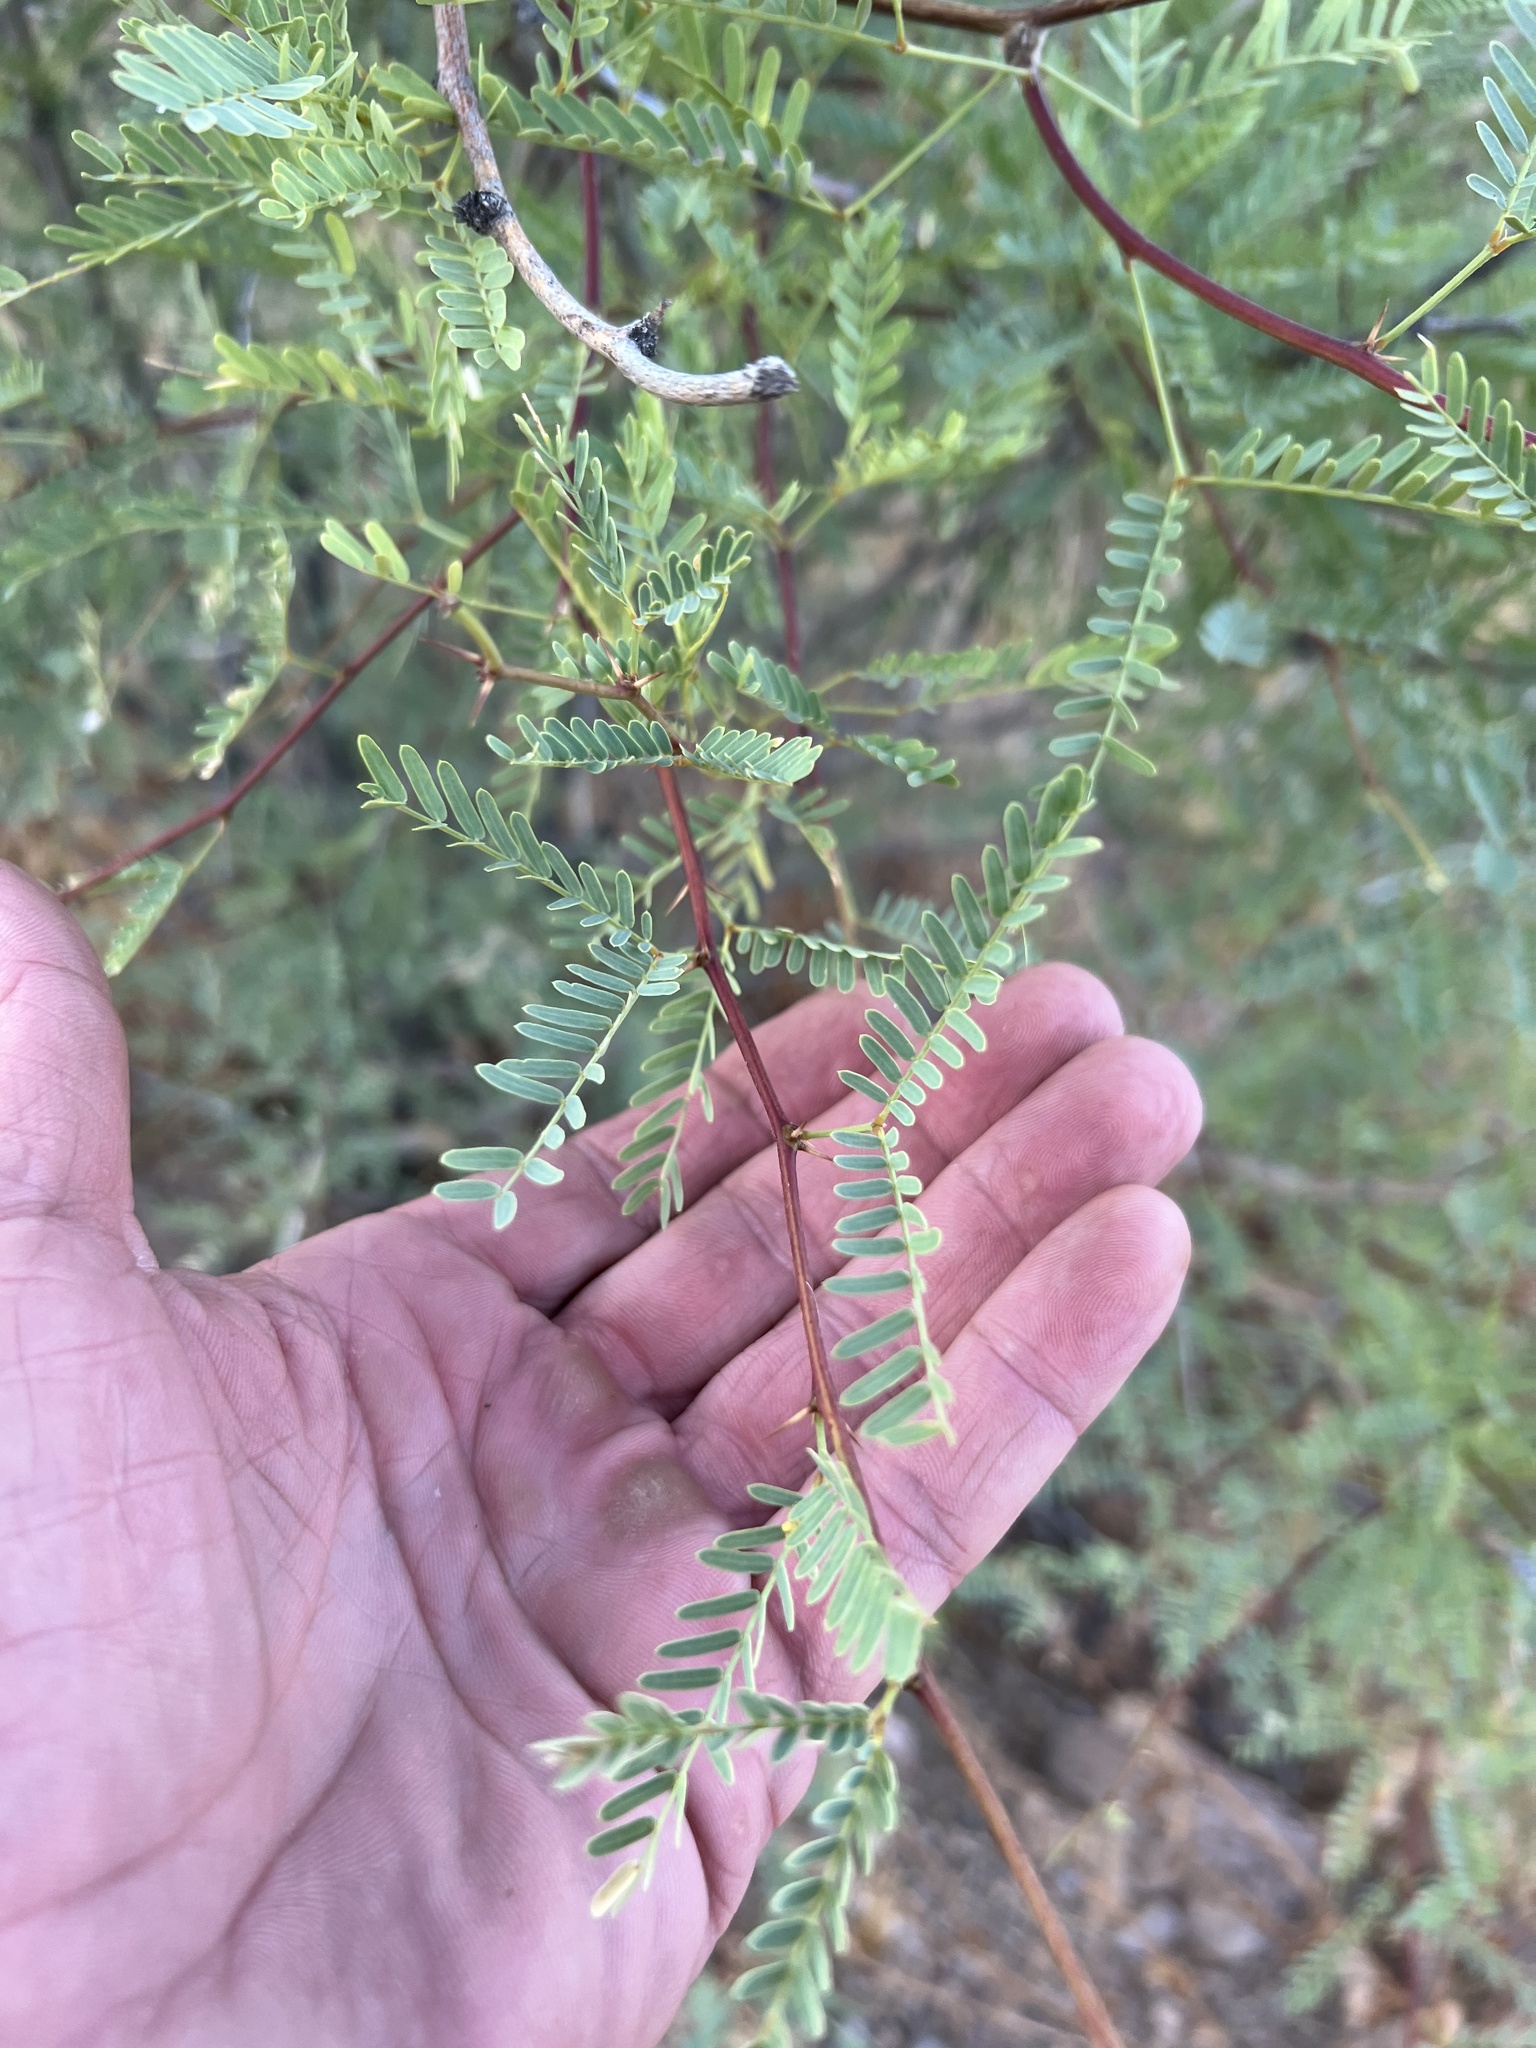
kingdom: Plantae
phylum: Tracheophyta
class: Magnoliopsida
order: Fabales
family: Fabaceae
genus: Prosopis
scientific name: Prosopis velutina
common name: Velvet mesquite
